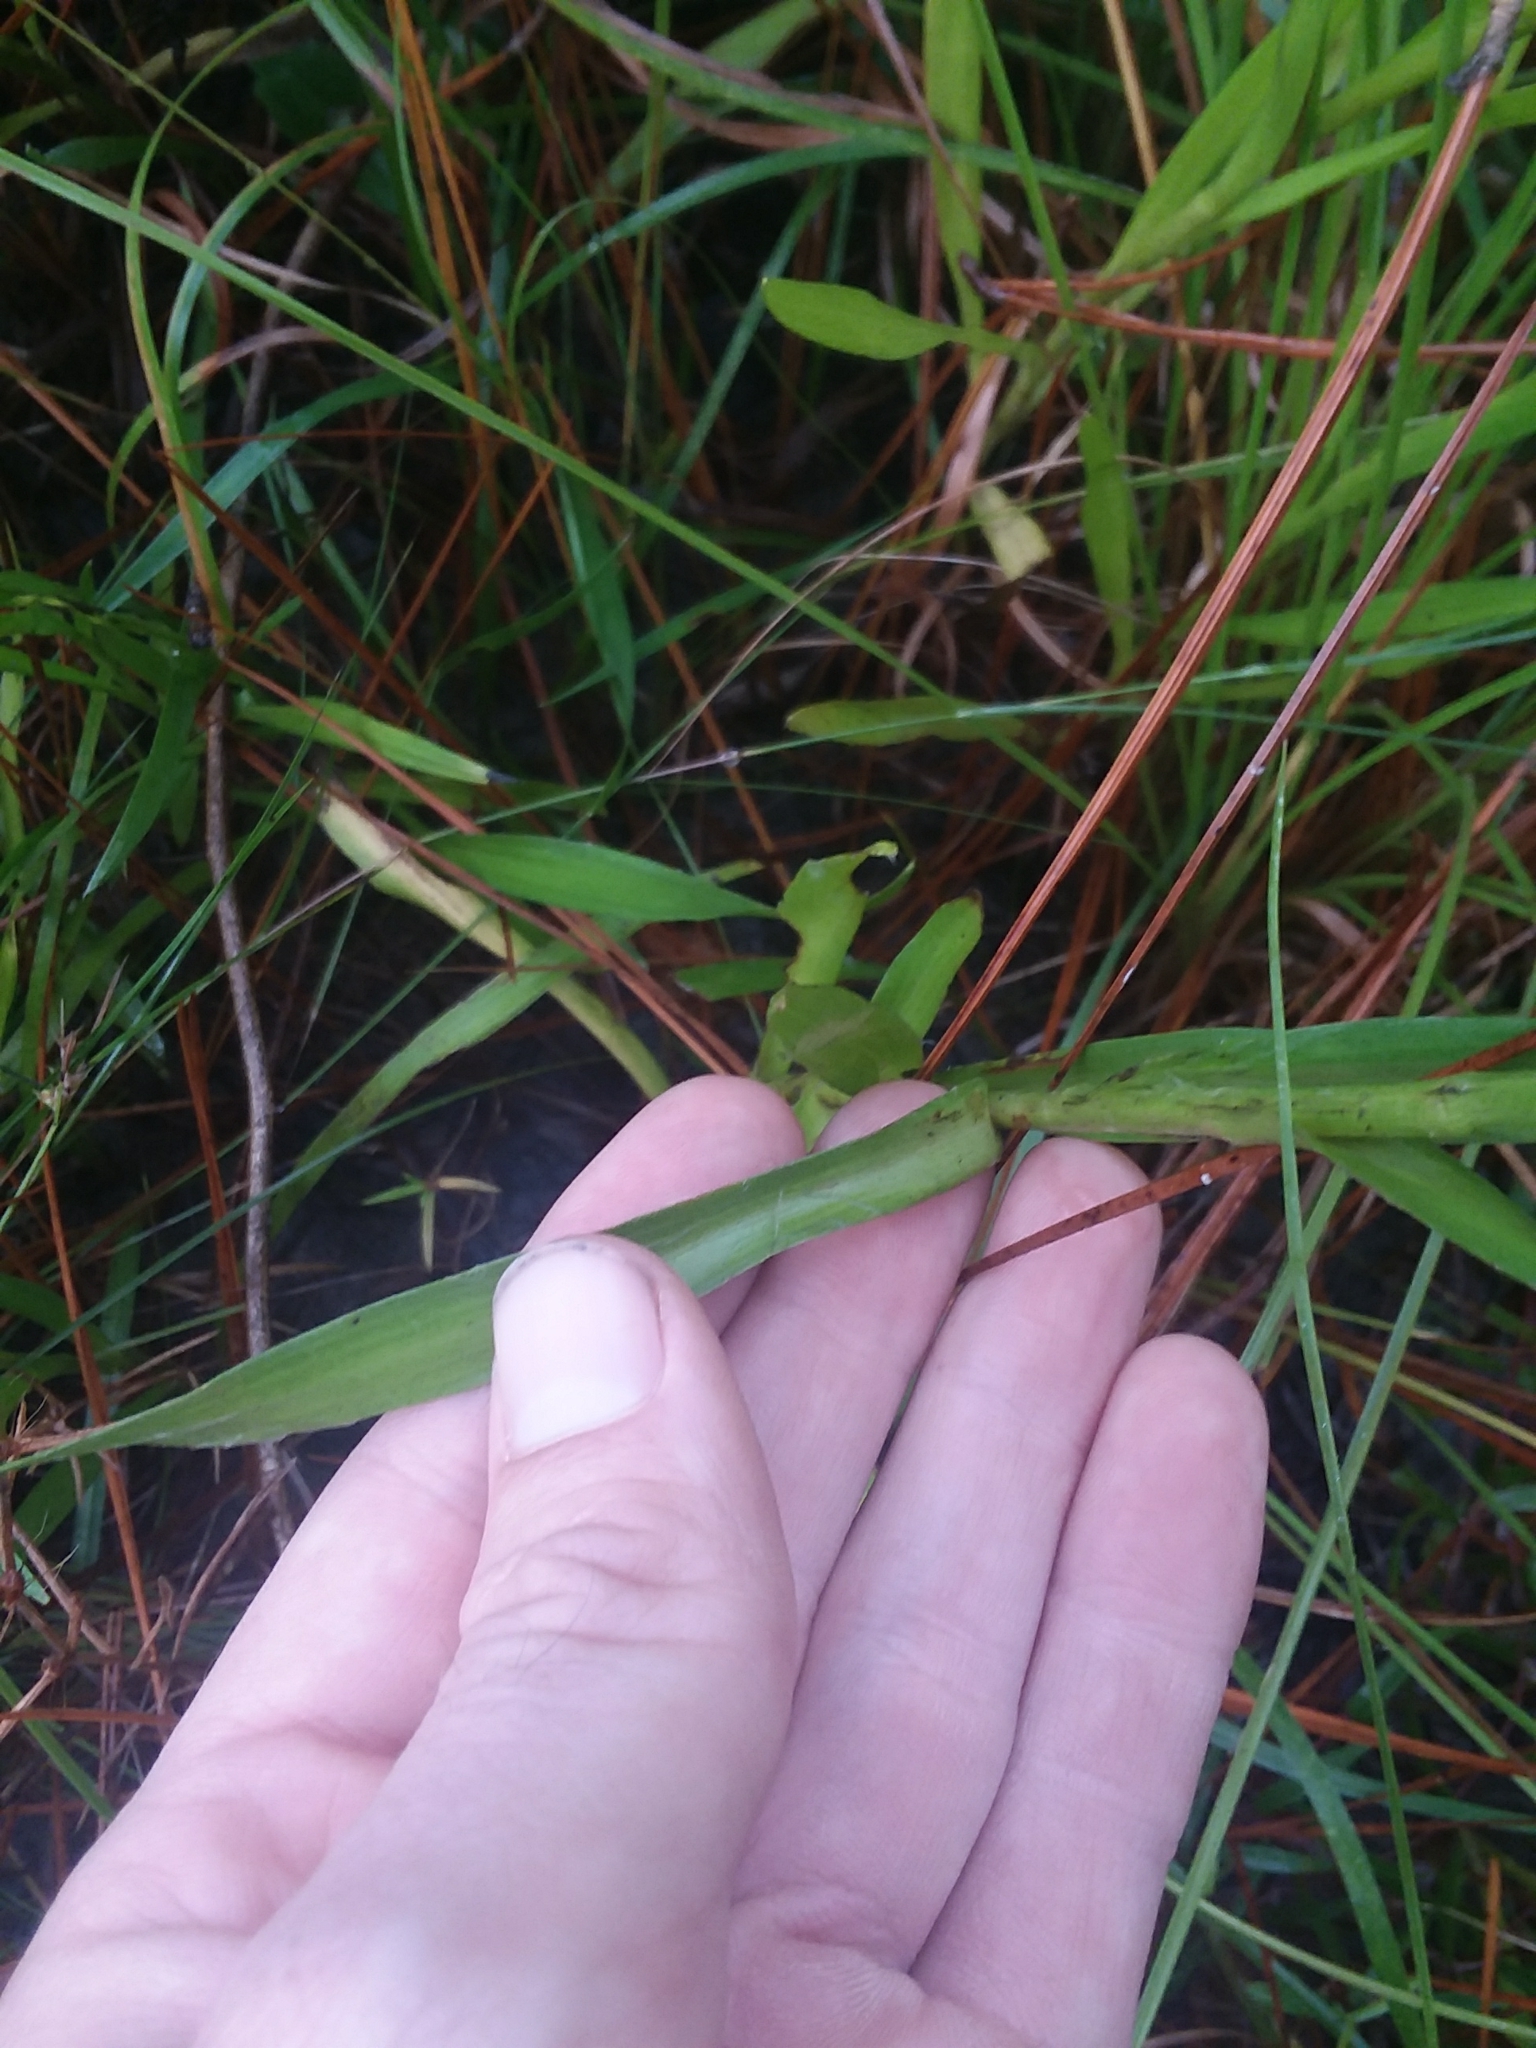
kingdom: Plantae
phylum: Tracheophyta
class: Magnoliopsida
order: Asterales
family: Asteraceae
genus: Pityopsis
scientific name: Pityopsis graminifolia
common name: Grass-leaf golden-aster
